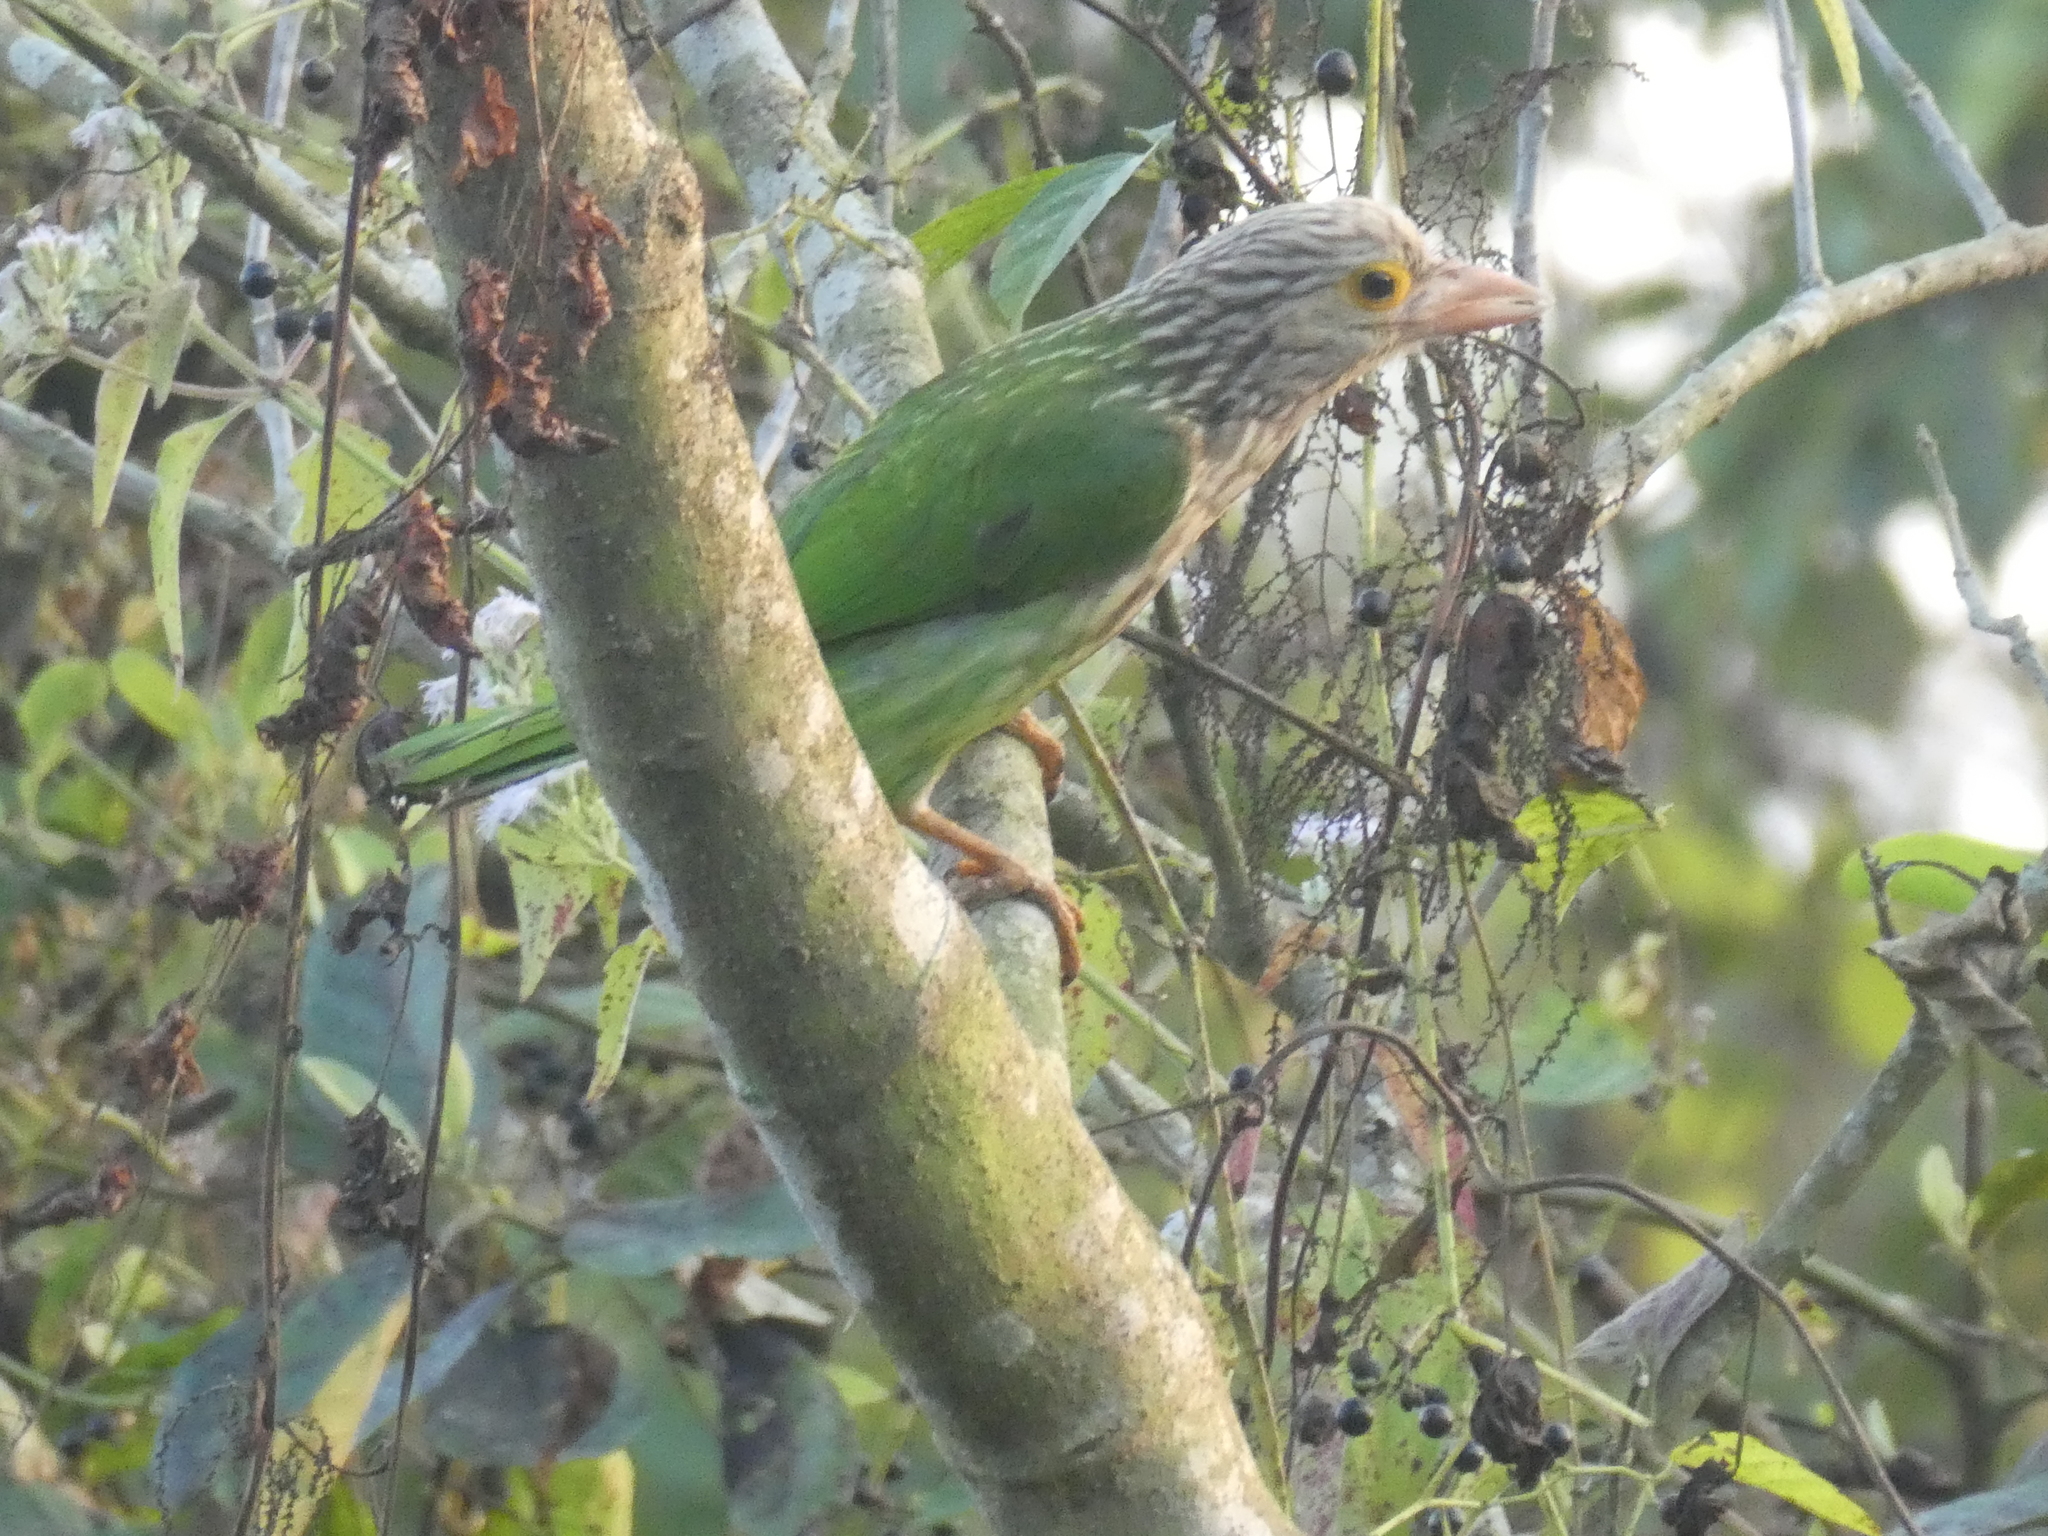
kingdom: Animalia
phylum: Chordata
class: Aves
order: Piciformes
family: Megalaimidae
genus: Psilopogon
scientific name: Psilopogon lineatus
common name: Lineated barbet
